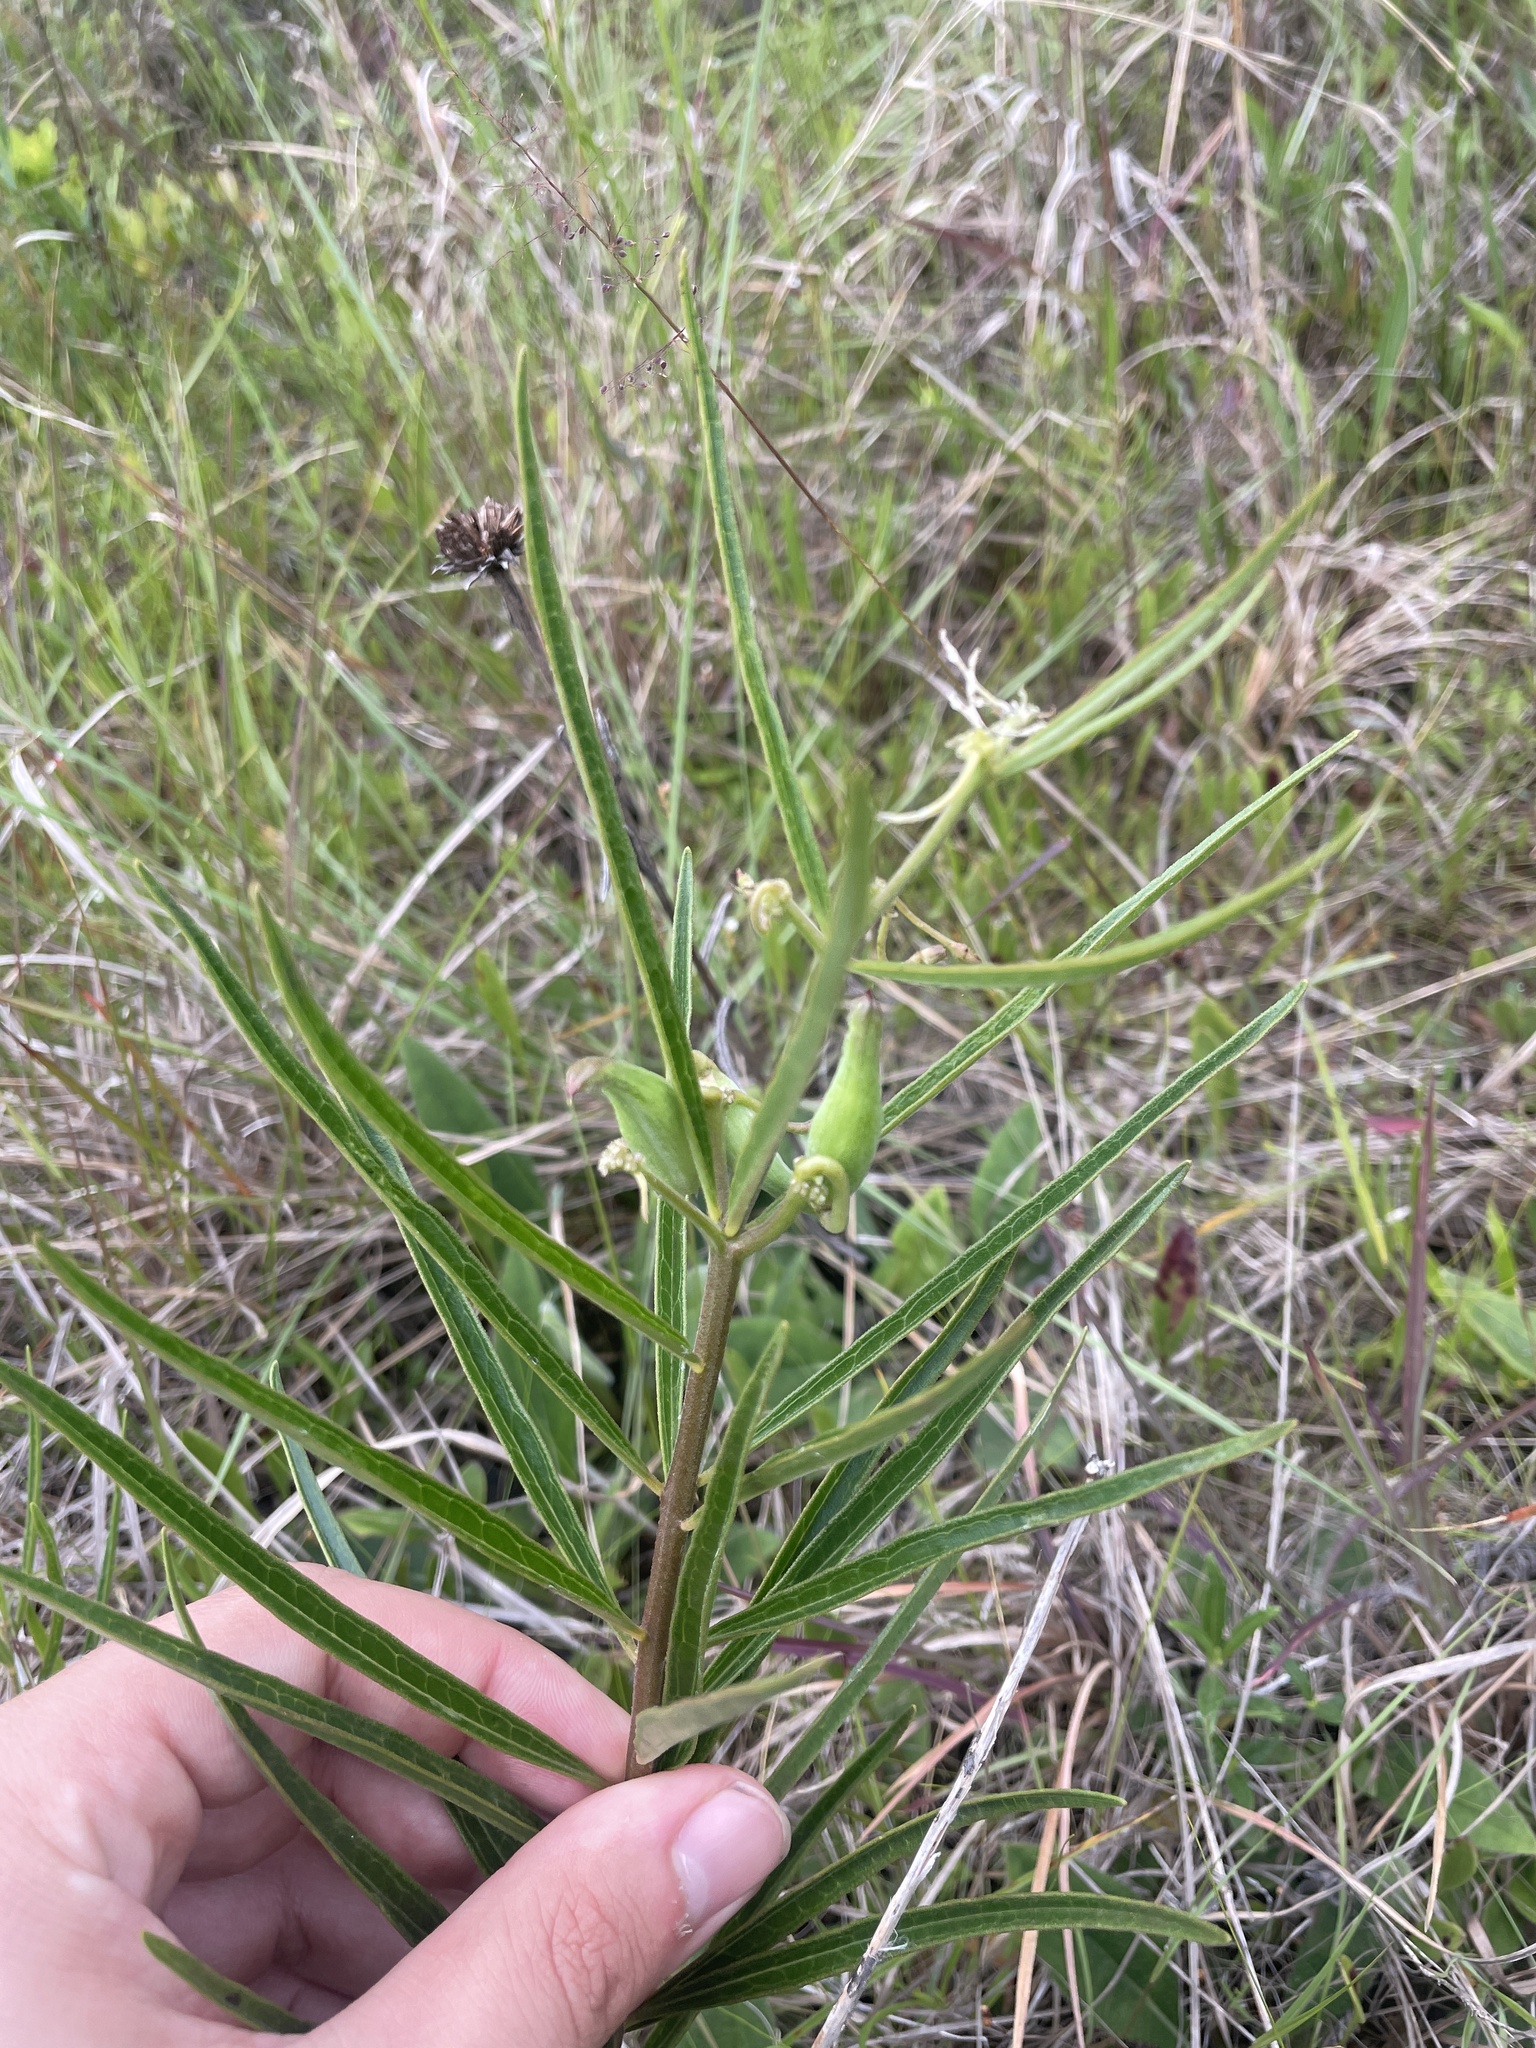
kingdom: Plantae
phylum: Tracheophyta
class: Magnoliopsida
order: Gentianales
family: Apocynaceae
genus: Asclepias
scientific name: Asclepias longifolia
